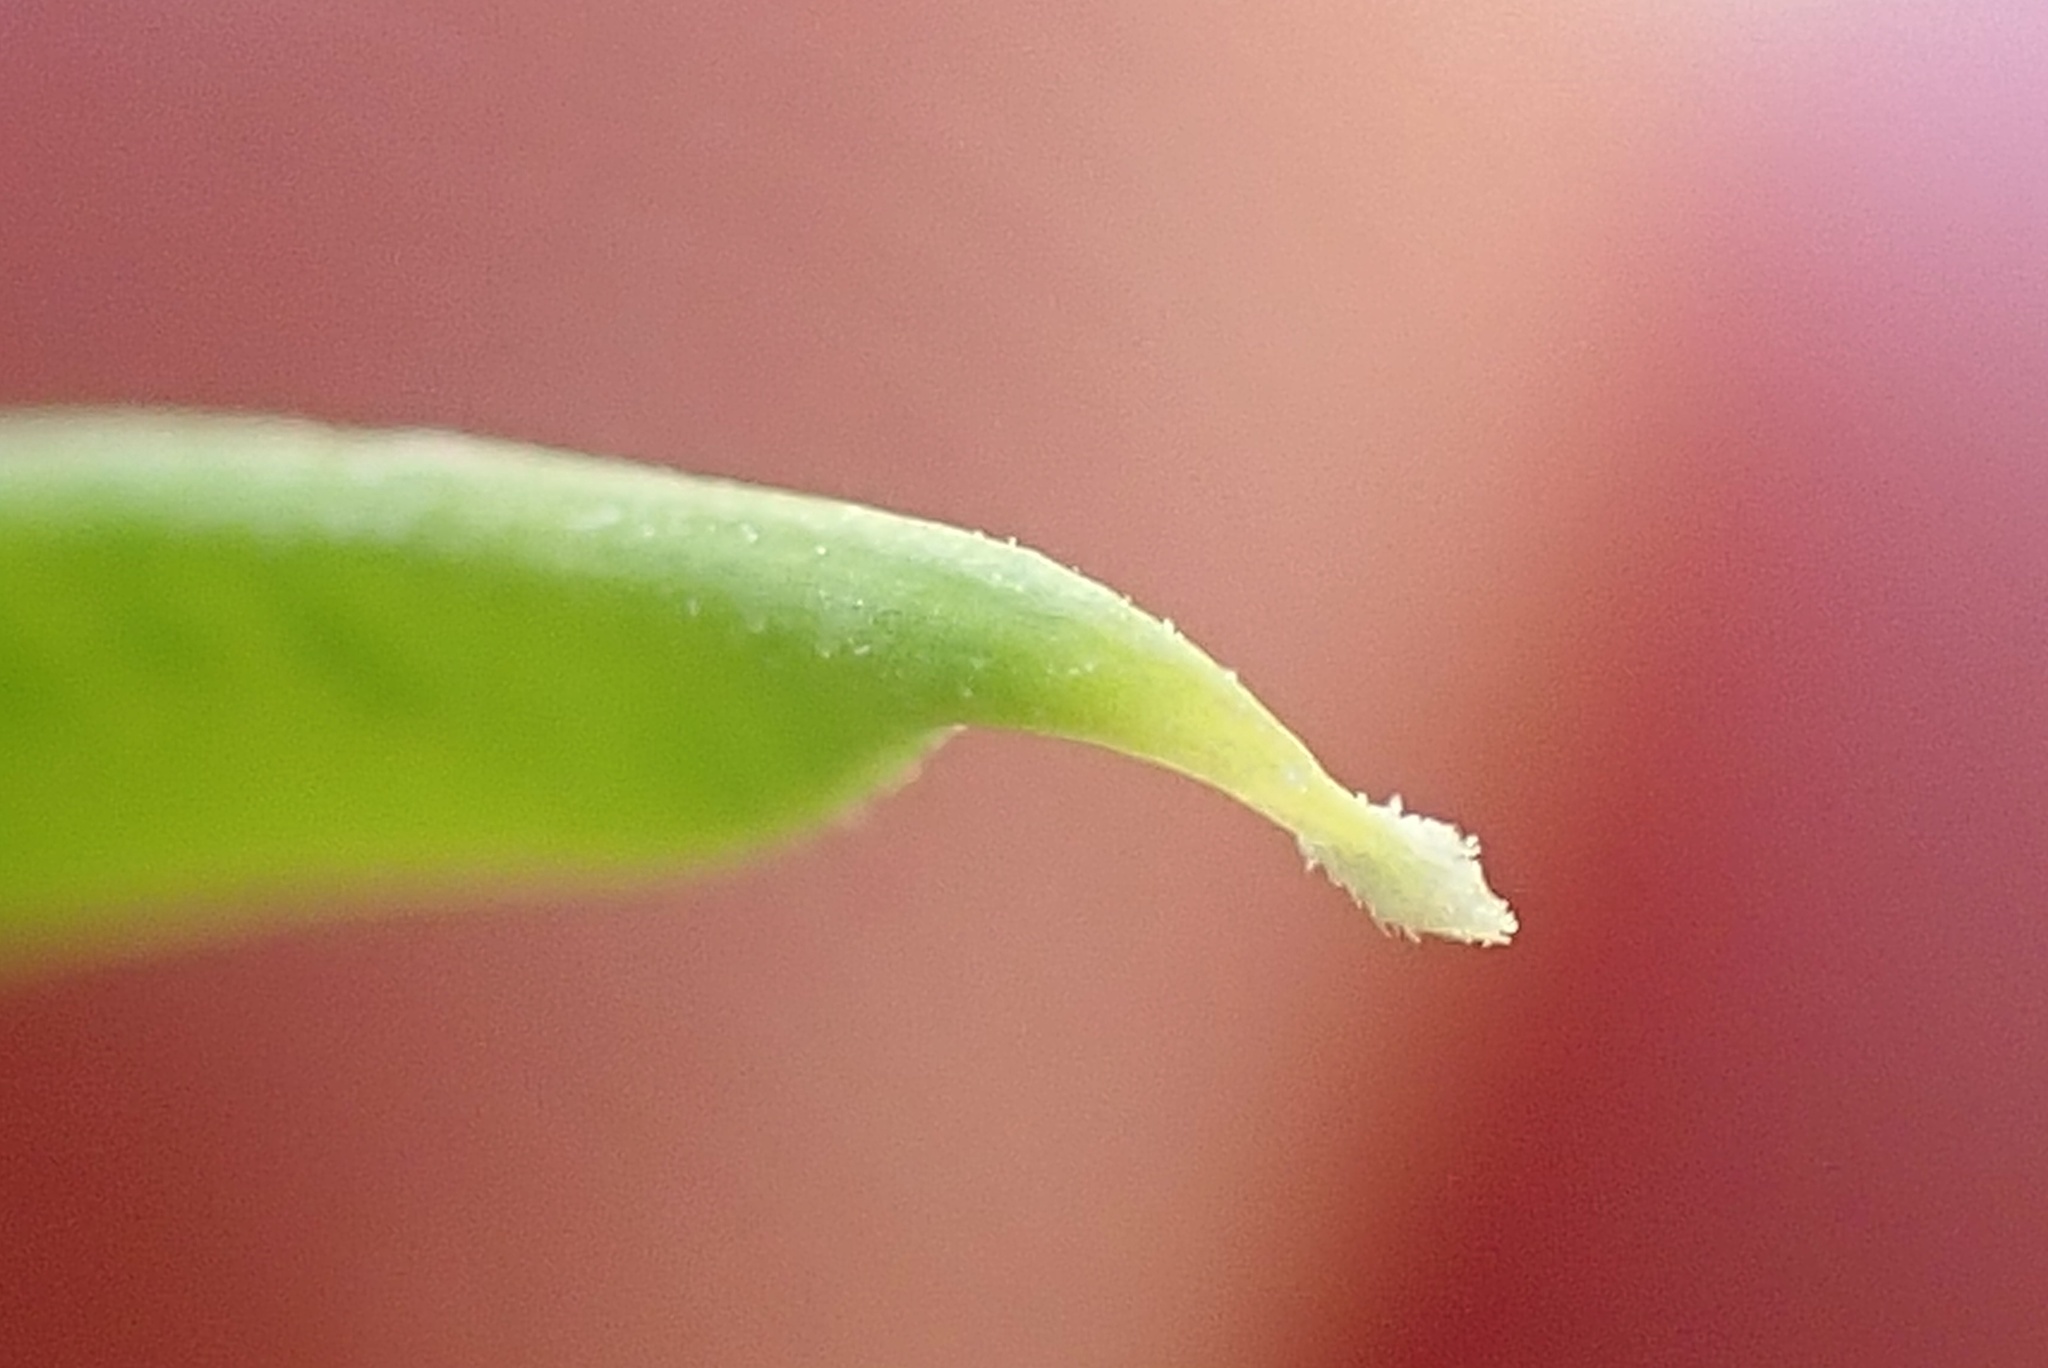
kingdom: Plantae
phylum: Tracheophyta
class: Magnoliopsida
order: Fabales
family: Fabaceae
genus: Vicia
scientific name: Vicia ludoviciana
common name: Louisiana vetch
